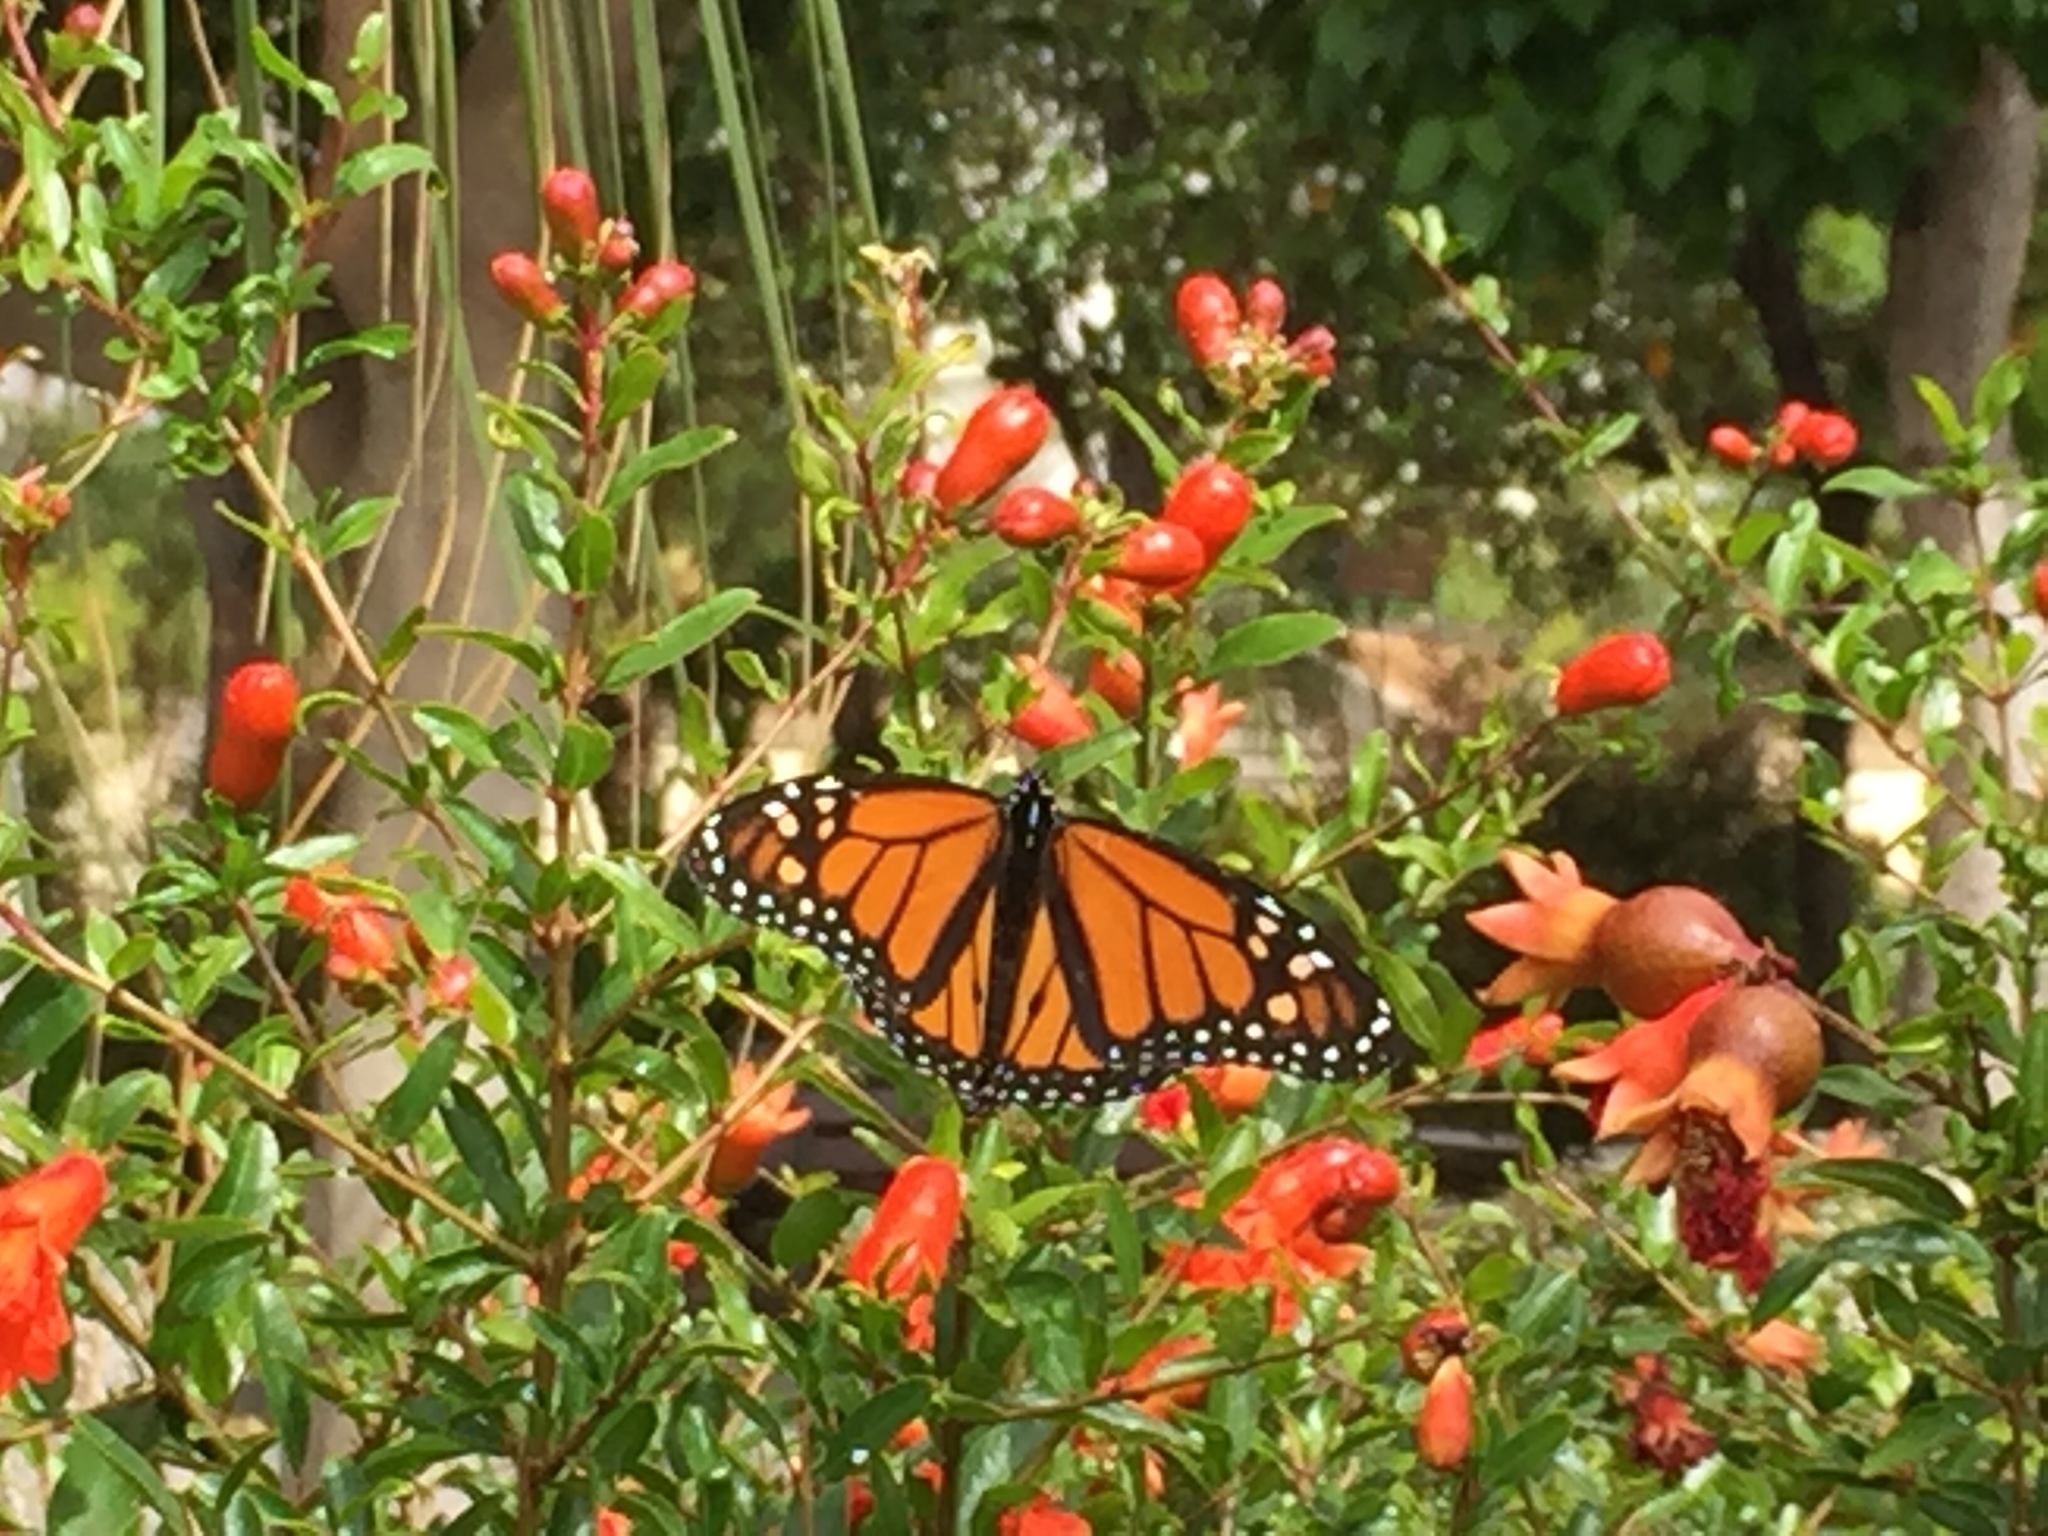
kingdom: Animalia
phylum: Arthropoda
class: Insecta
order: Lepidoptera
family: Nymphalidae
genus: Danaus
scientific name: Danaus plexippus
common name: Monarch
